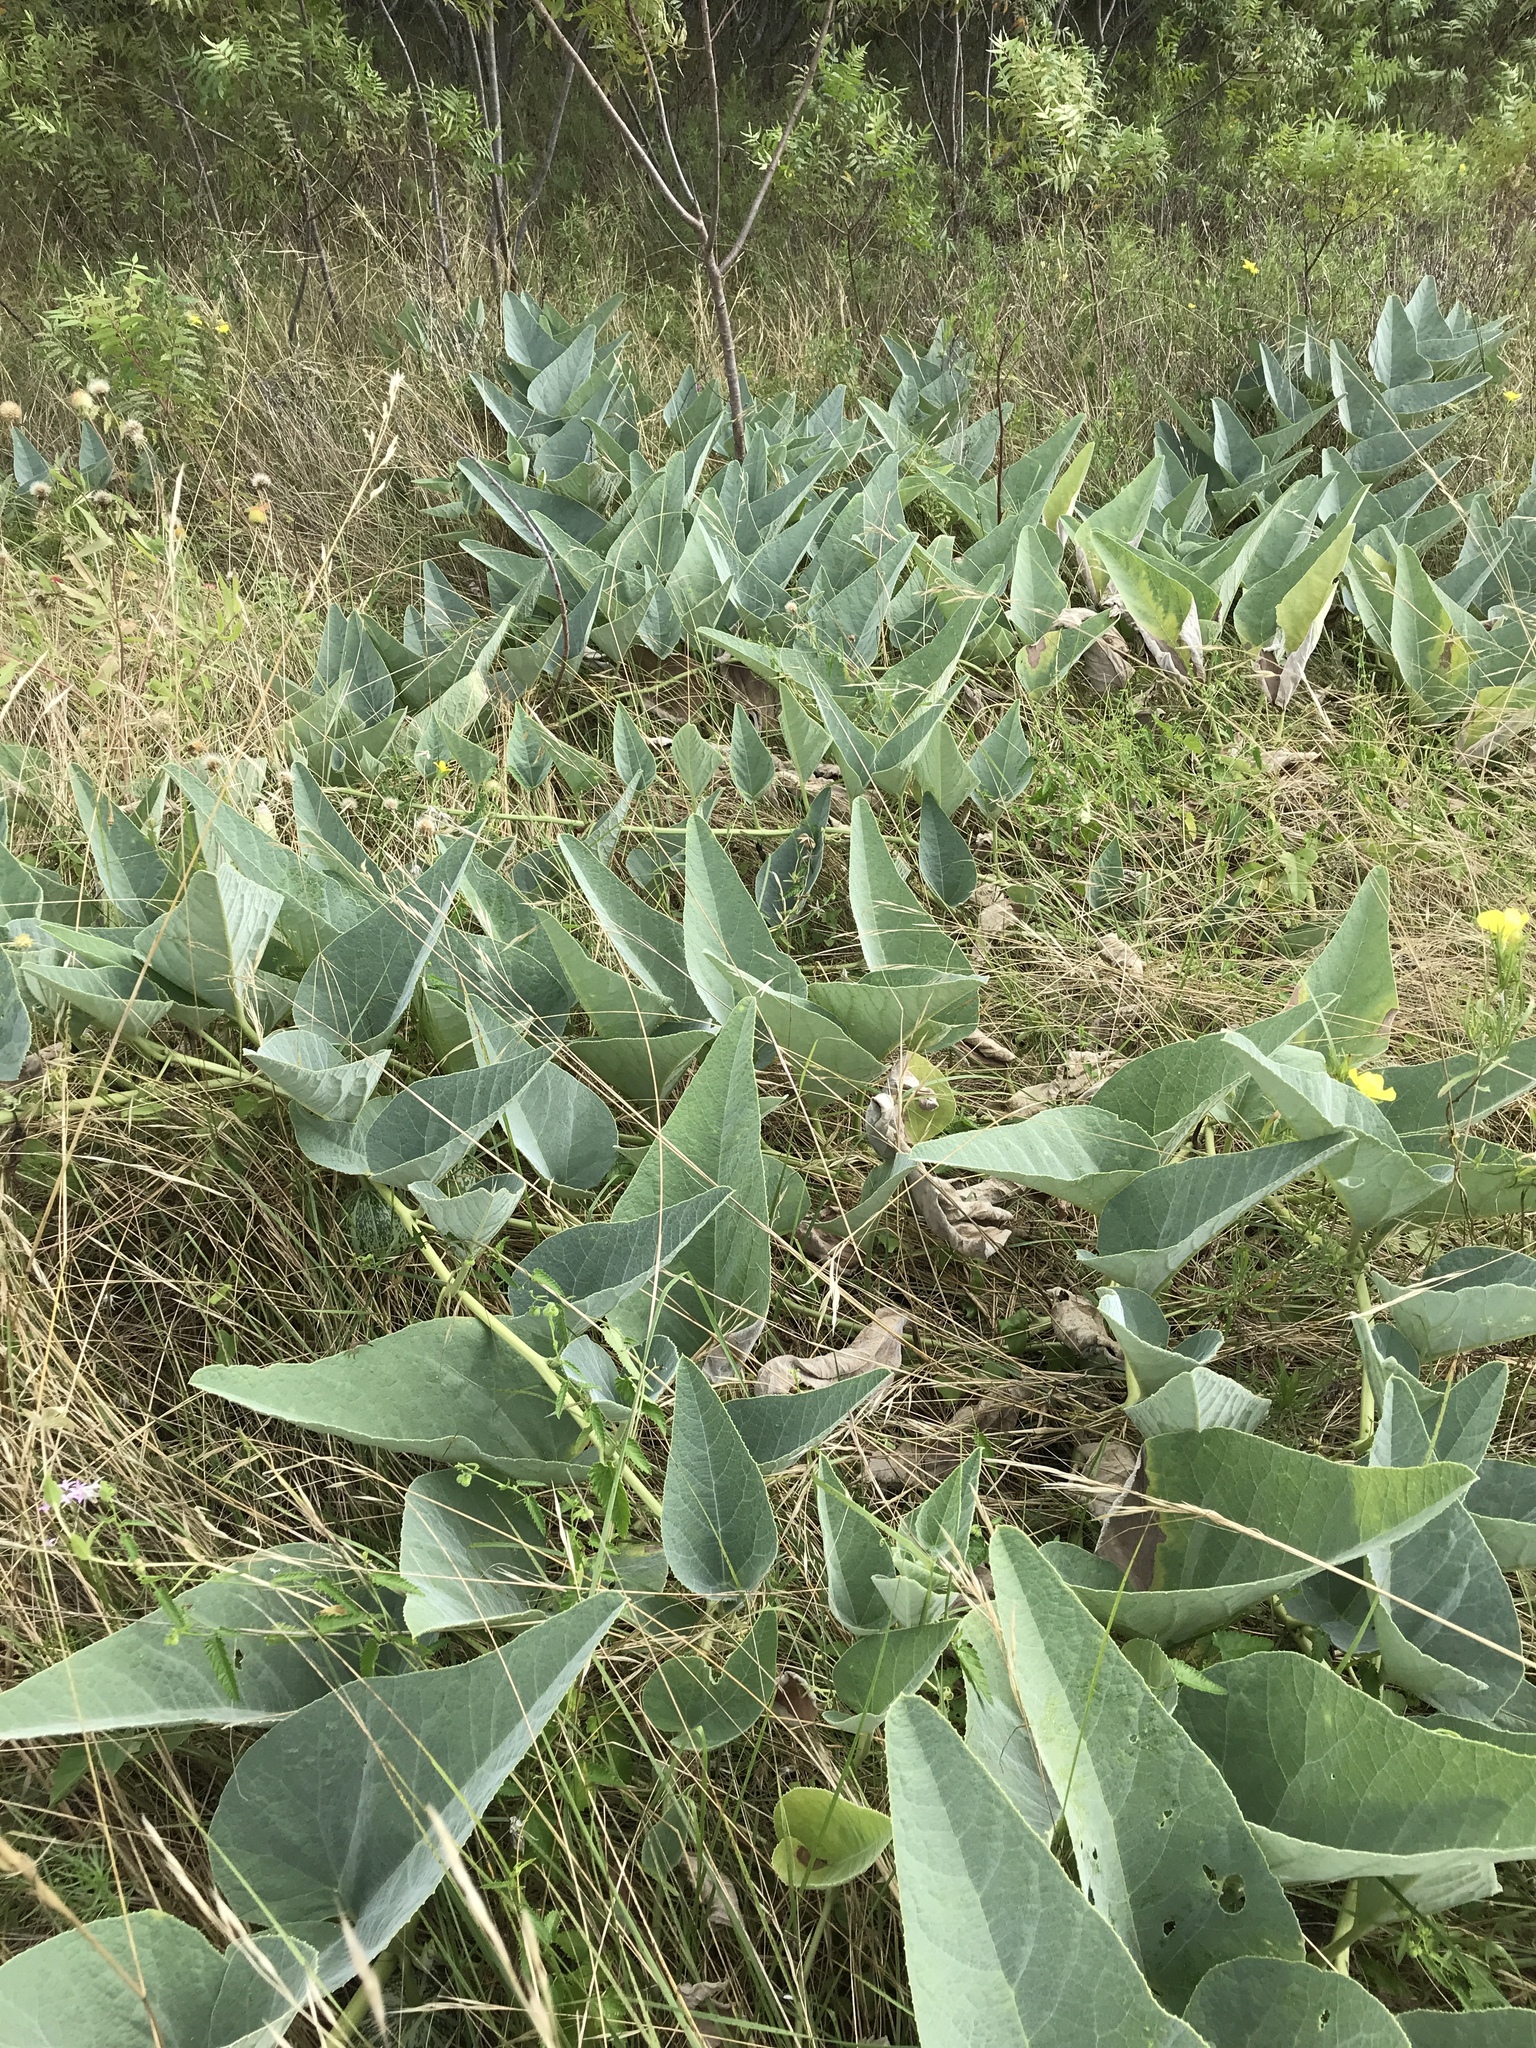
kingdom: Plantae
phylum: Tracheophyta
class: Magnoliopsida
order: Cucurbitales
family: Cucurbitaceae
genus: Cucurbita
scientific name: Cucurbita foetidissima
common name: Buffalo gourd
